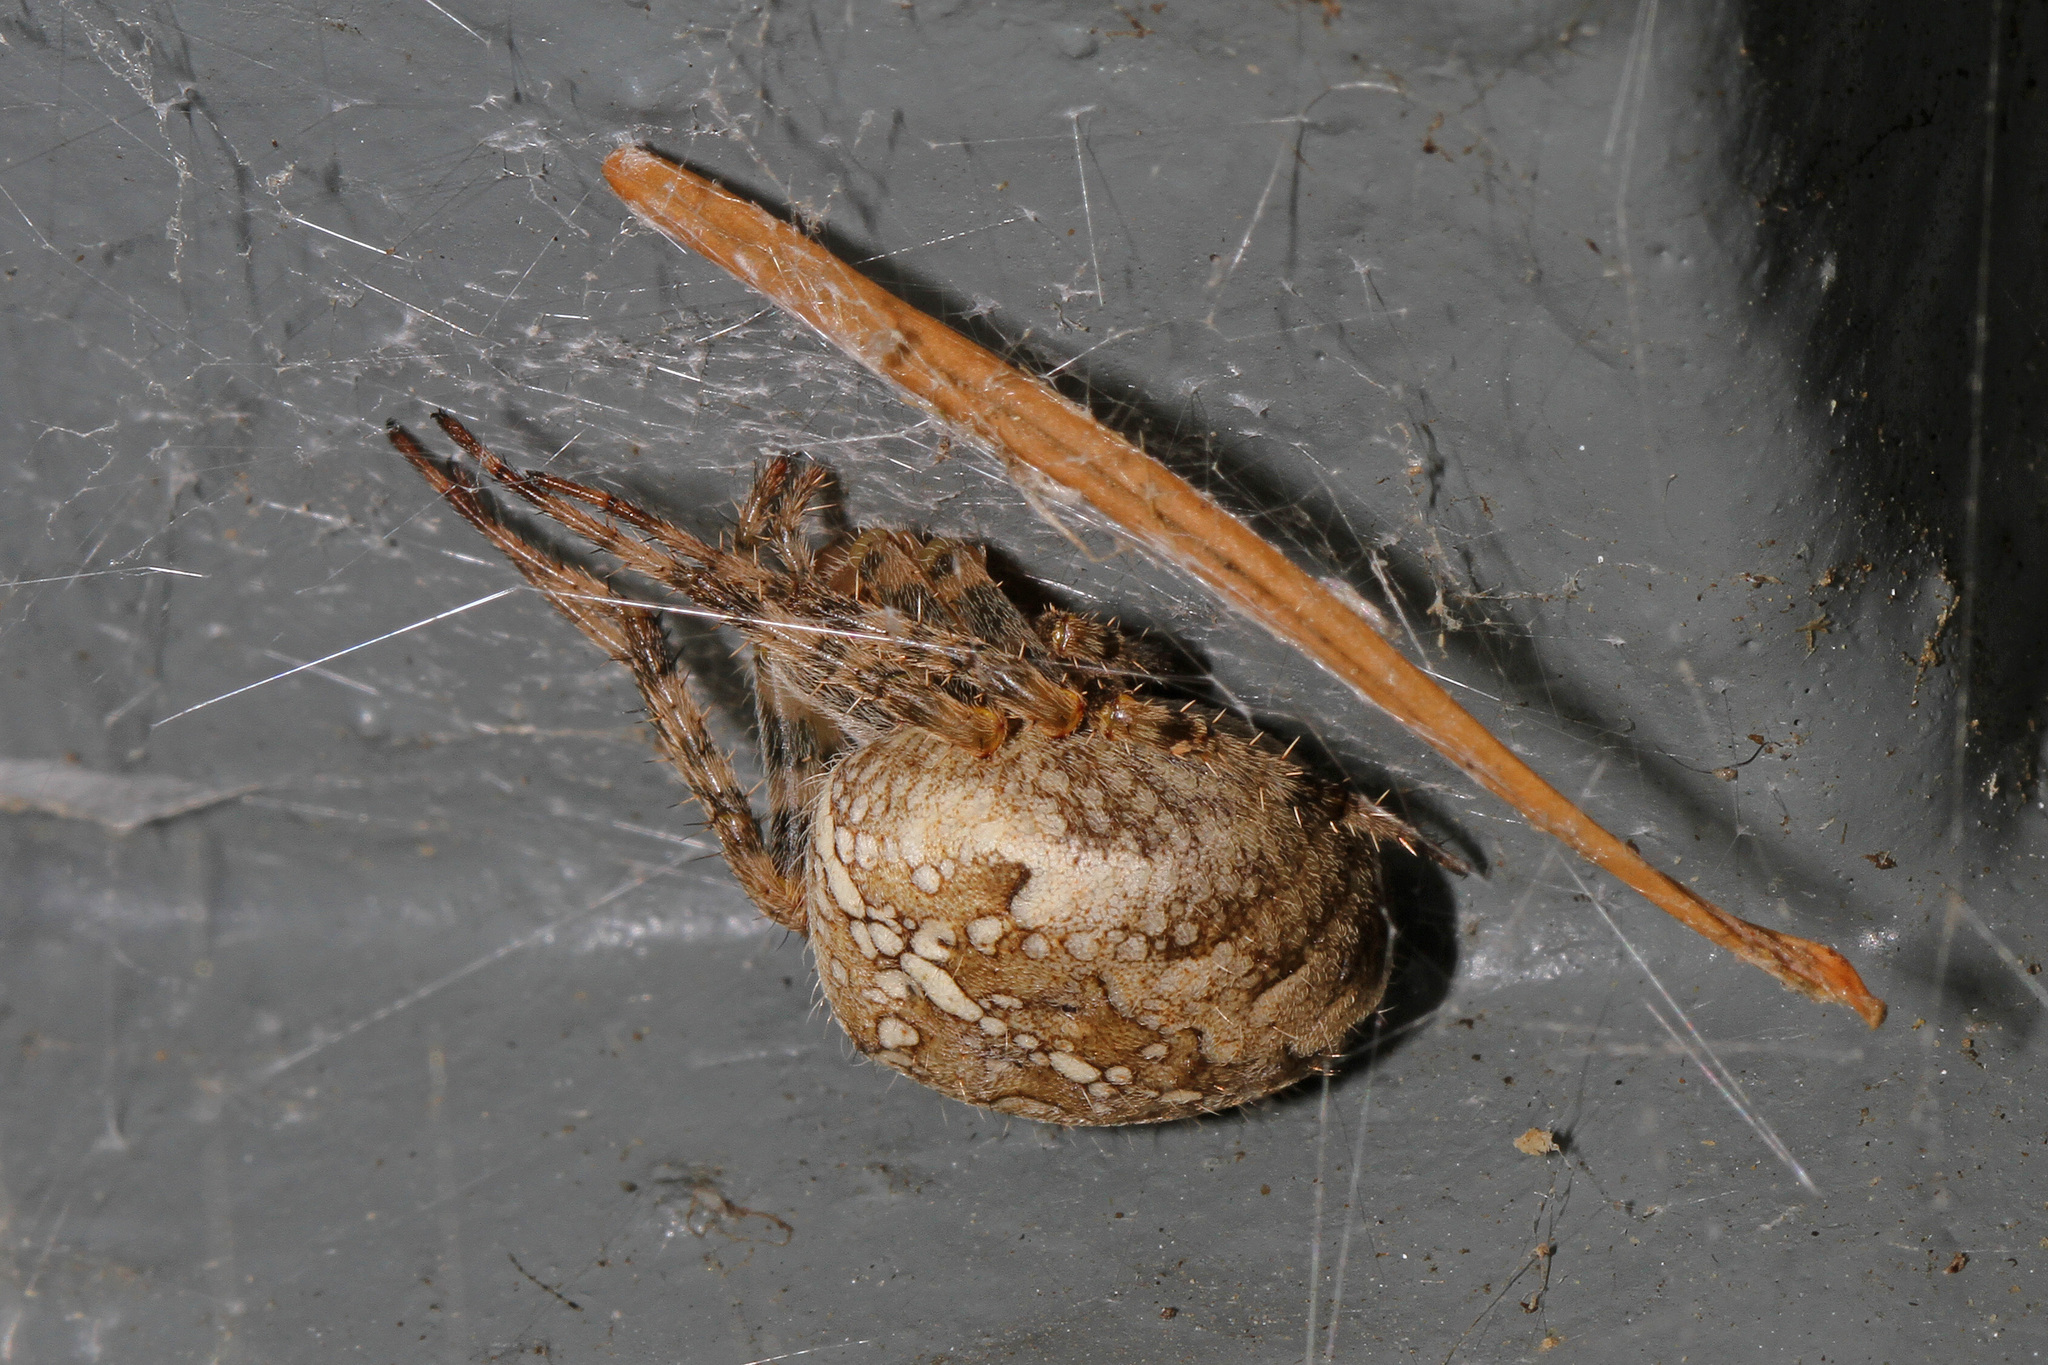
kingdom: Animalia
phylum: Arthropoda
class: Arachnida
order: Araneae
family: Araneidae
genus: Araneus
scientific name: Araneus diadematus
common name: Cross orbweaver
